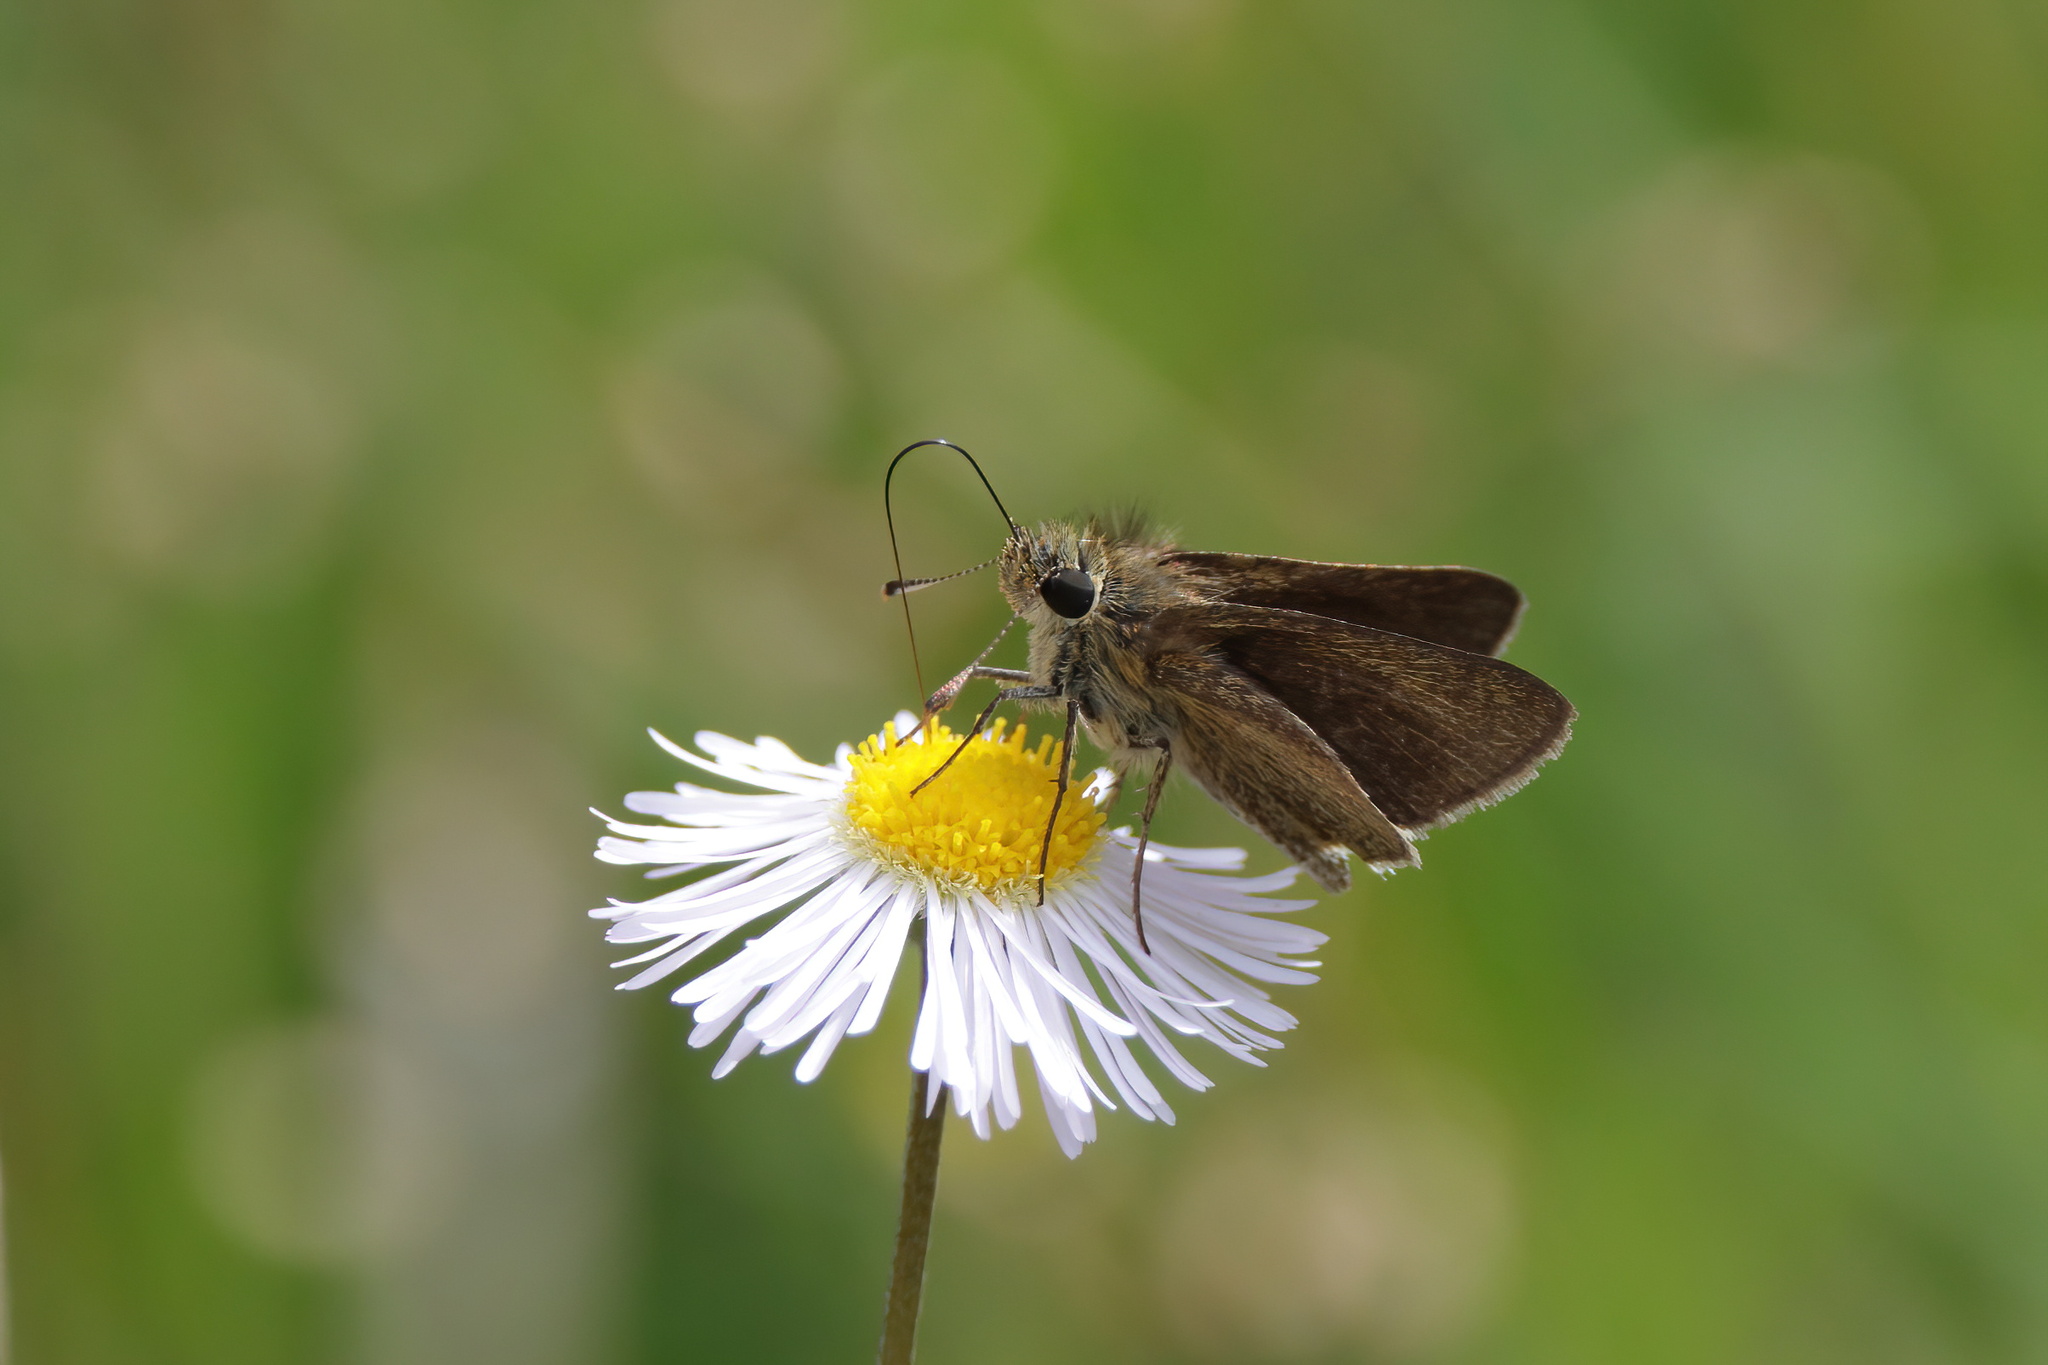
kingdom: Animalia
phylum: Arthropoda
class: Insecta
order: Lepidoptera
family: Hesperiidae
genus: Nastra
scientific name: Nastra lherminier
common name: Swarthy skipper
